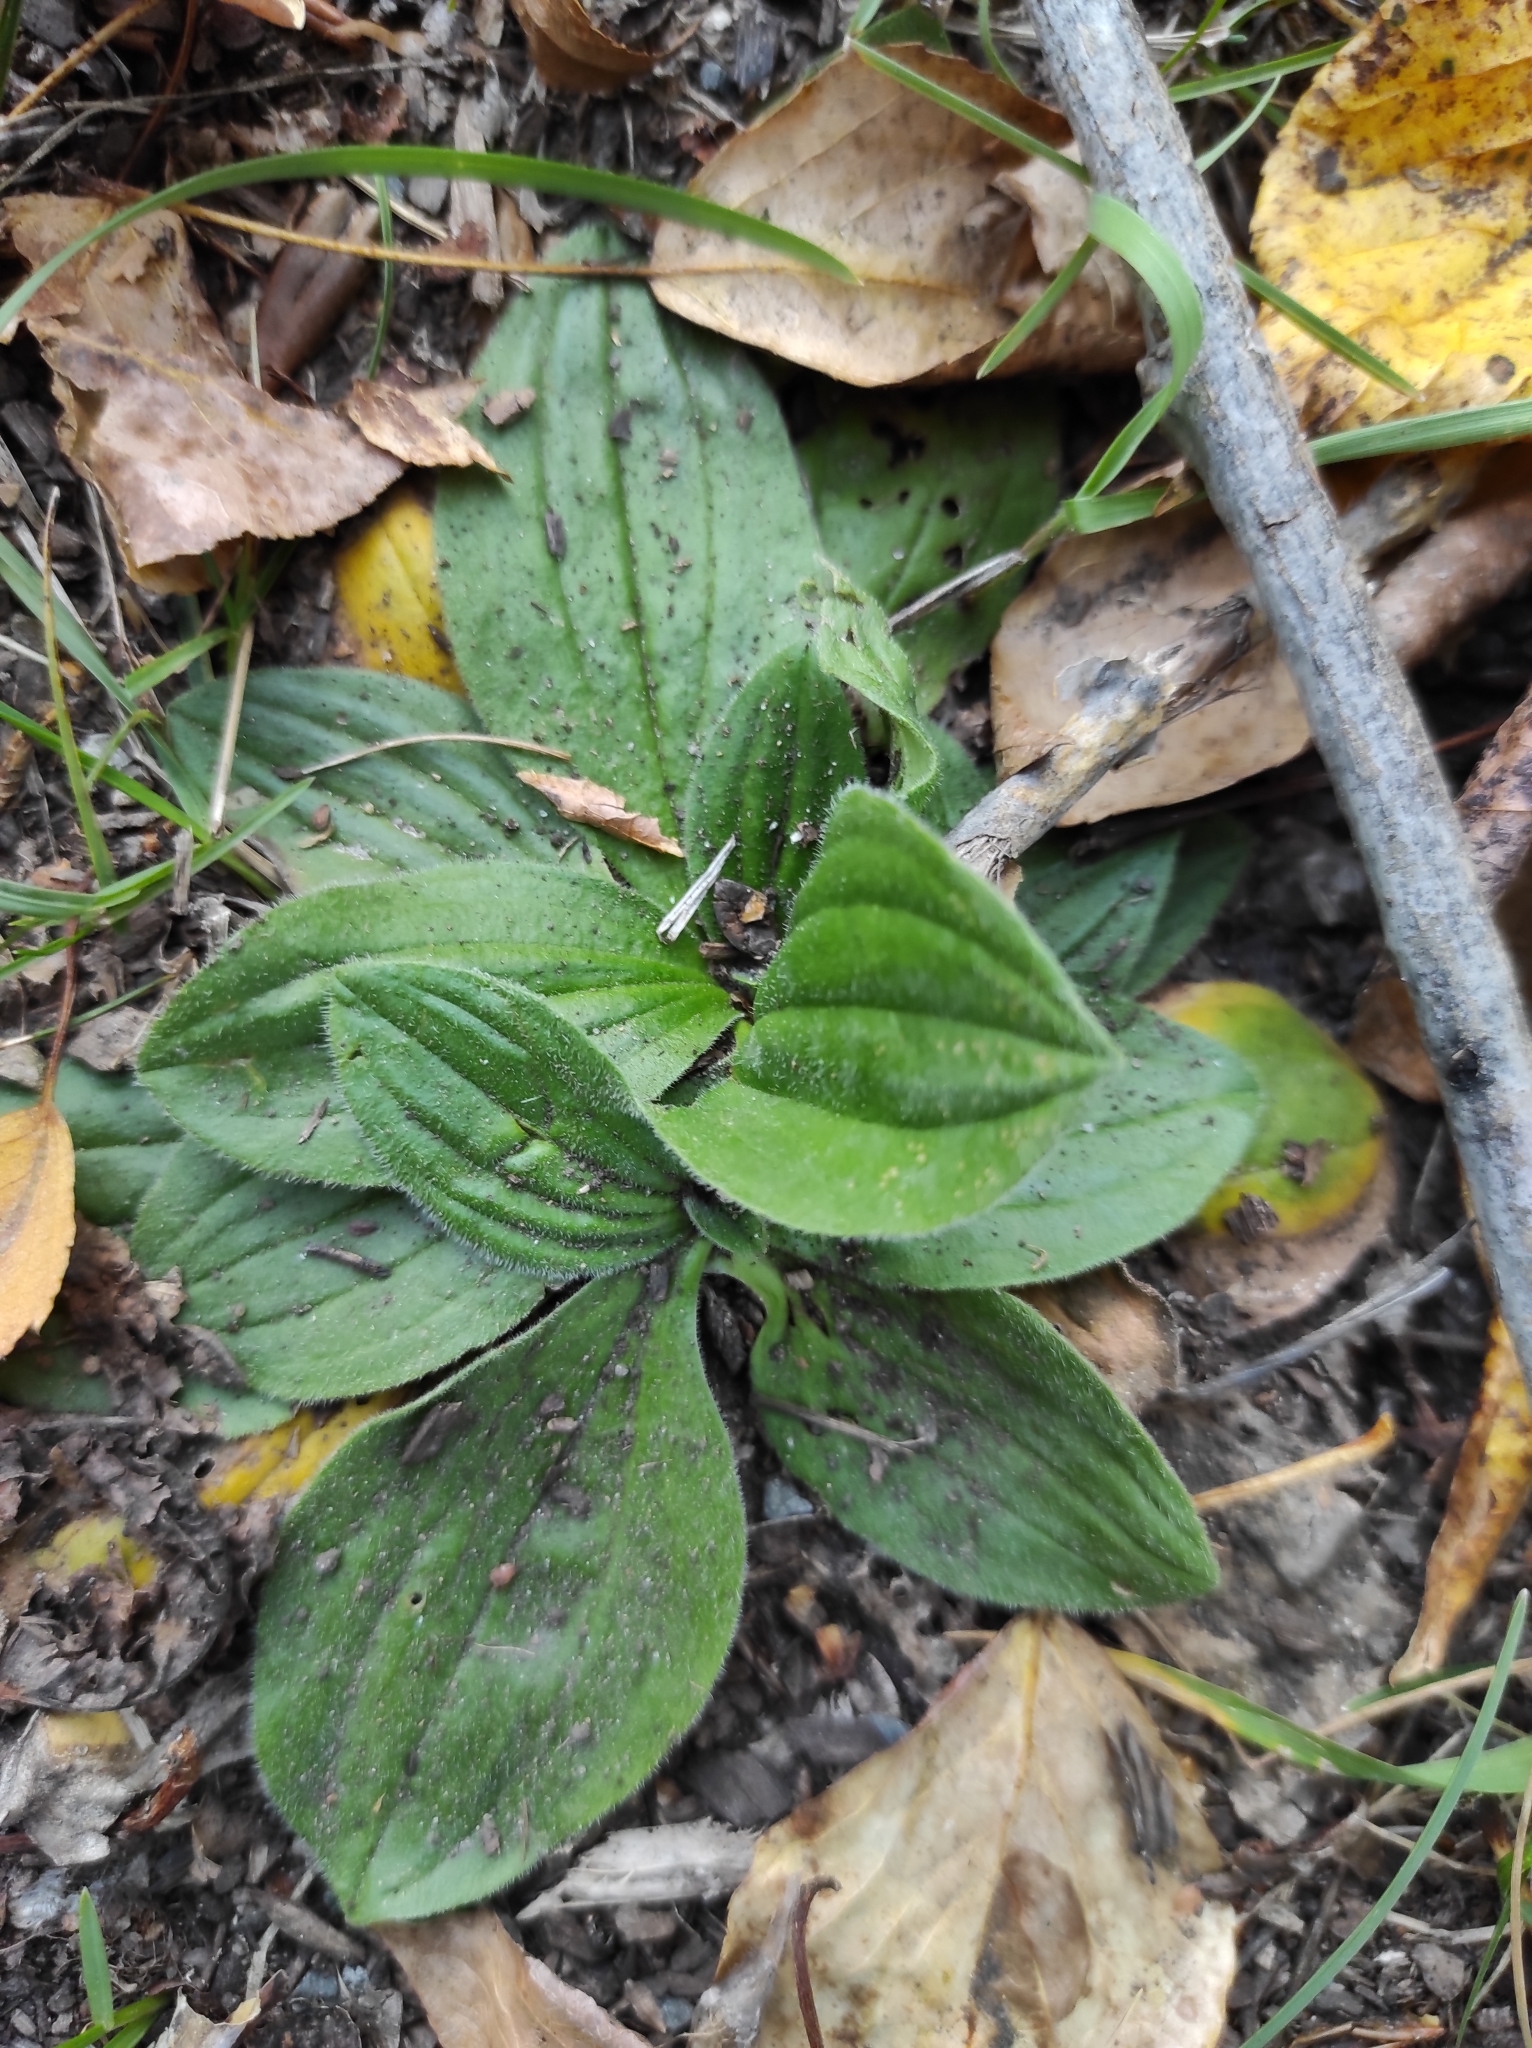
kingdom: Plantae
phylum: Tracheophyta
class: Magnoliopsida
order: Lamiales
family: Plantaginaceae
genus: Plantago
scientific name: Plantago media
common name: Hoary plantain
